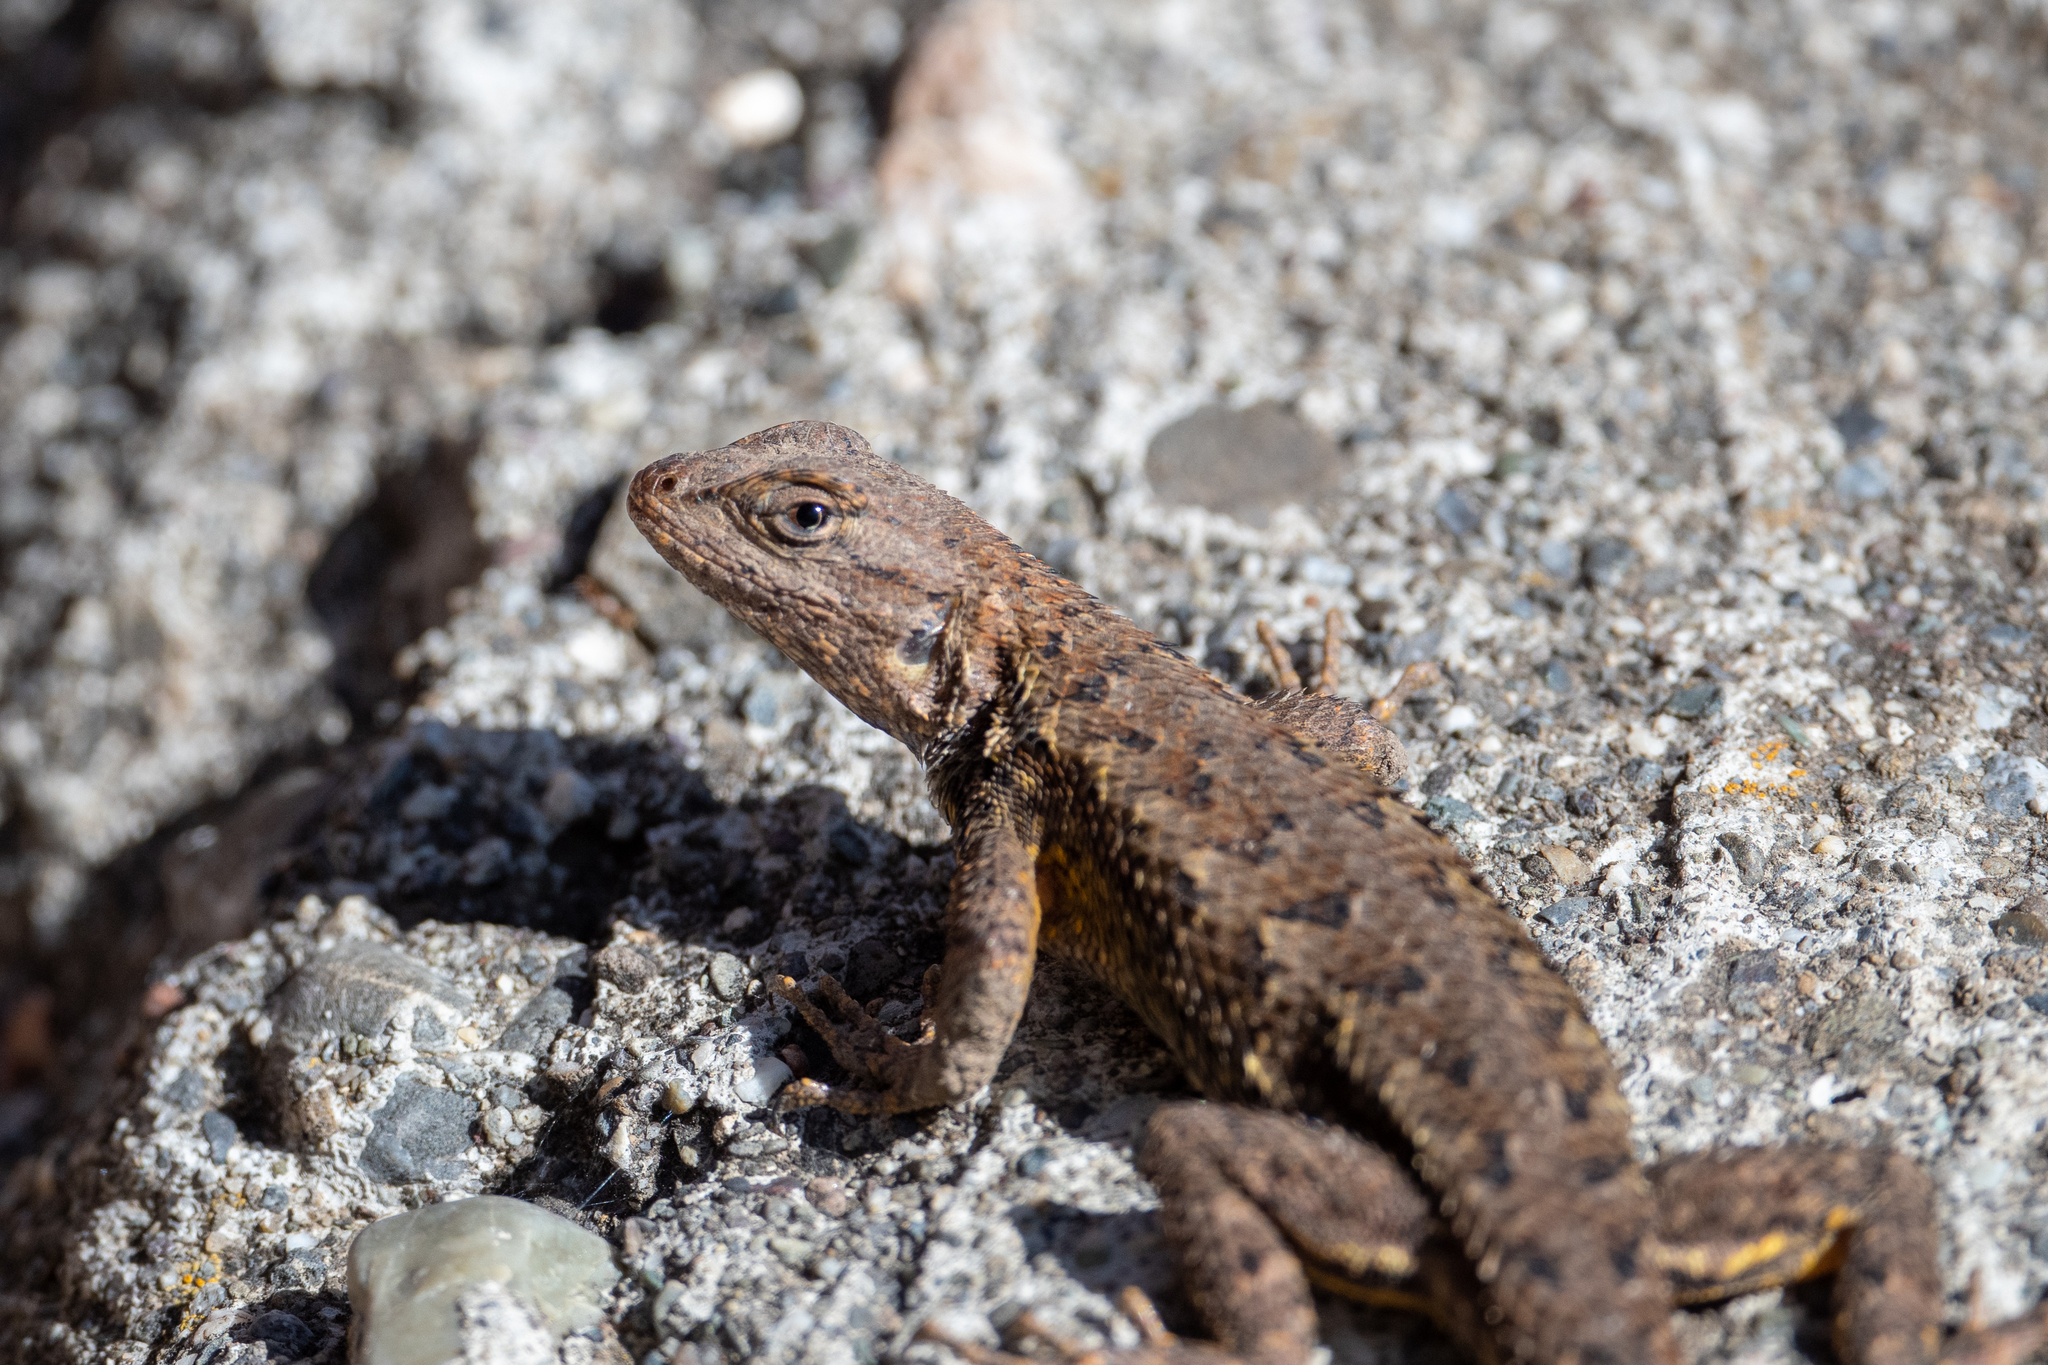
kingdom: Animalia
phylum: Chordata
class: Squamata
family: Phrynosomatidae
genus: Sceloporus
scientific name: Sceloporus occidentalis
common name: Western fence lizard
